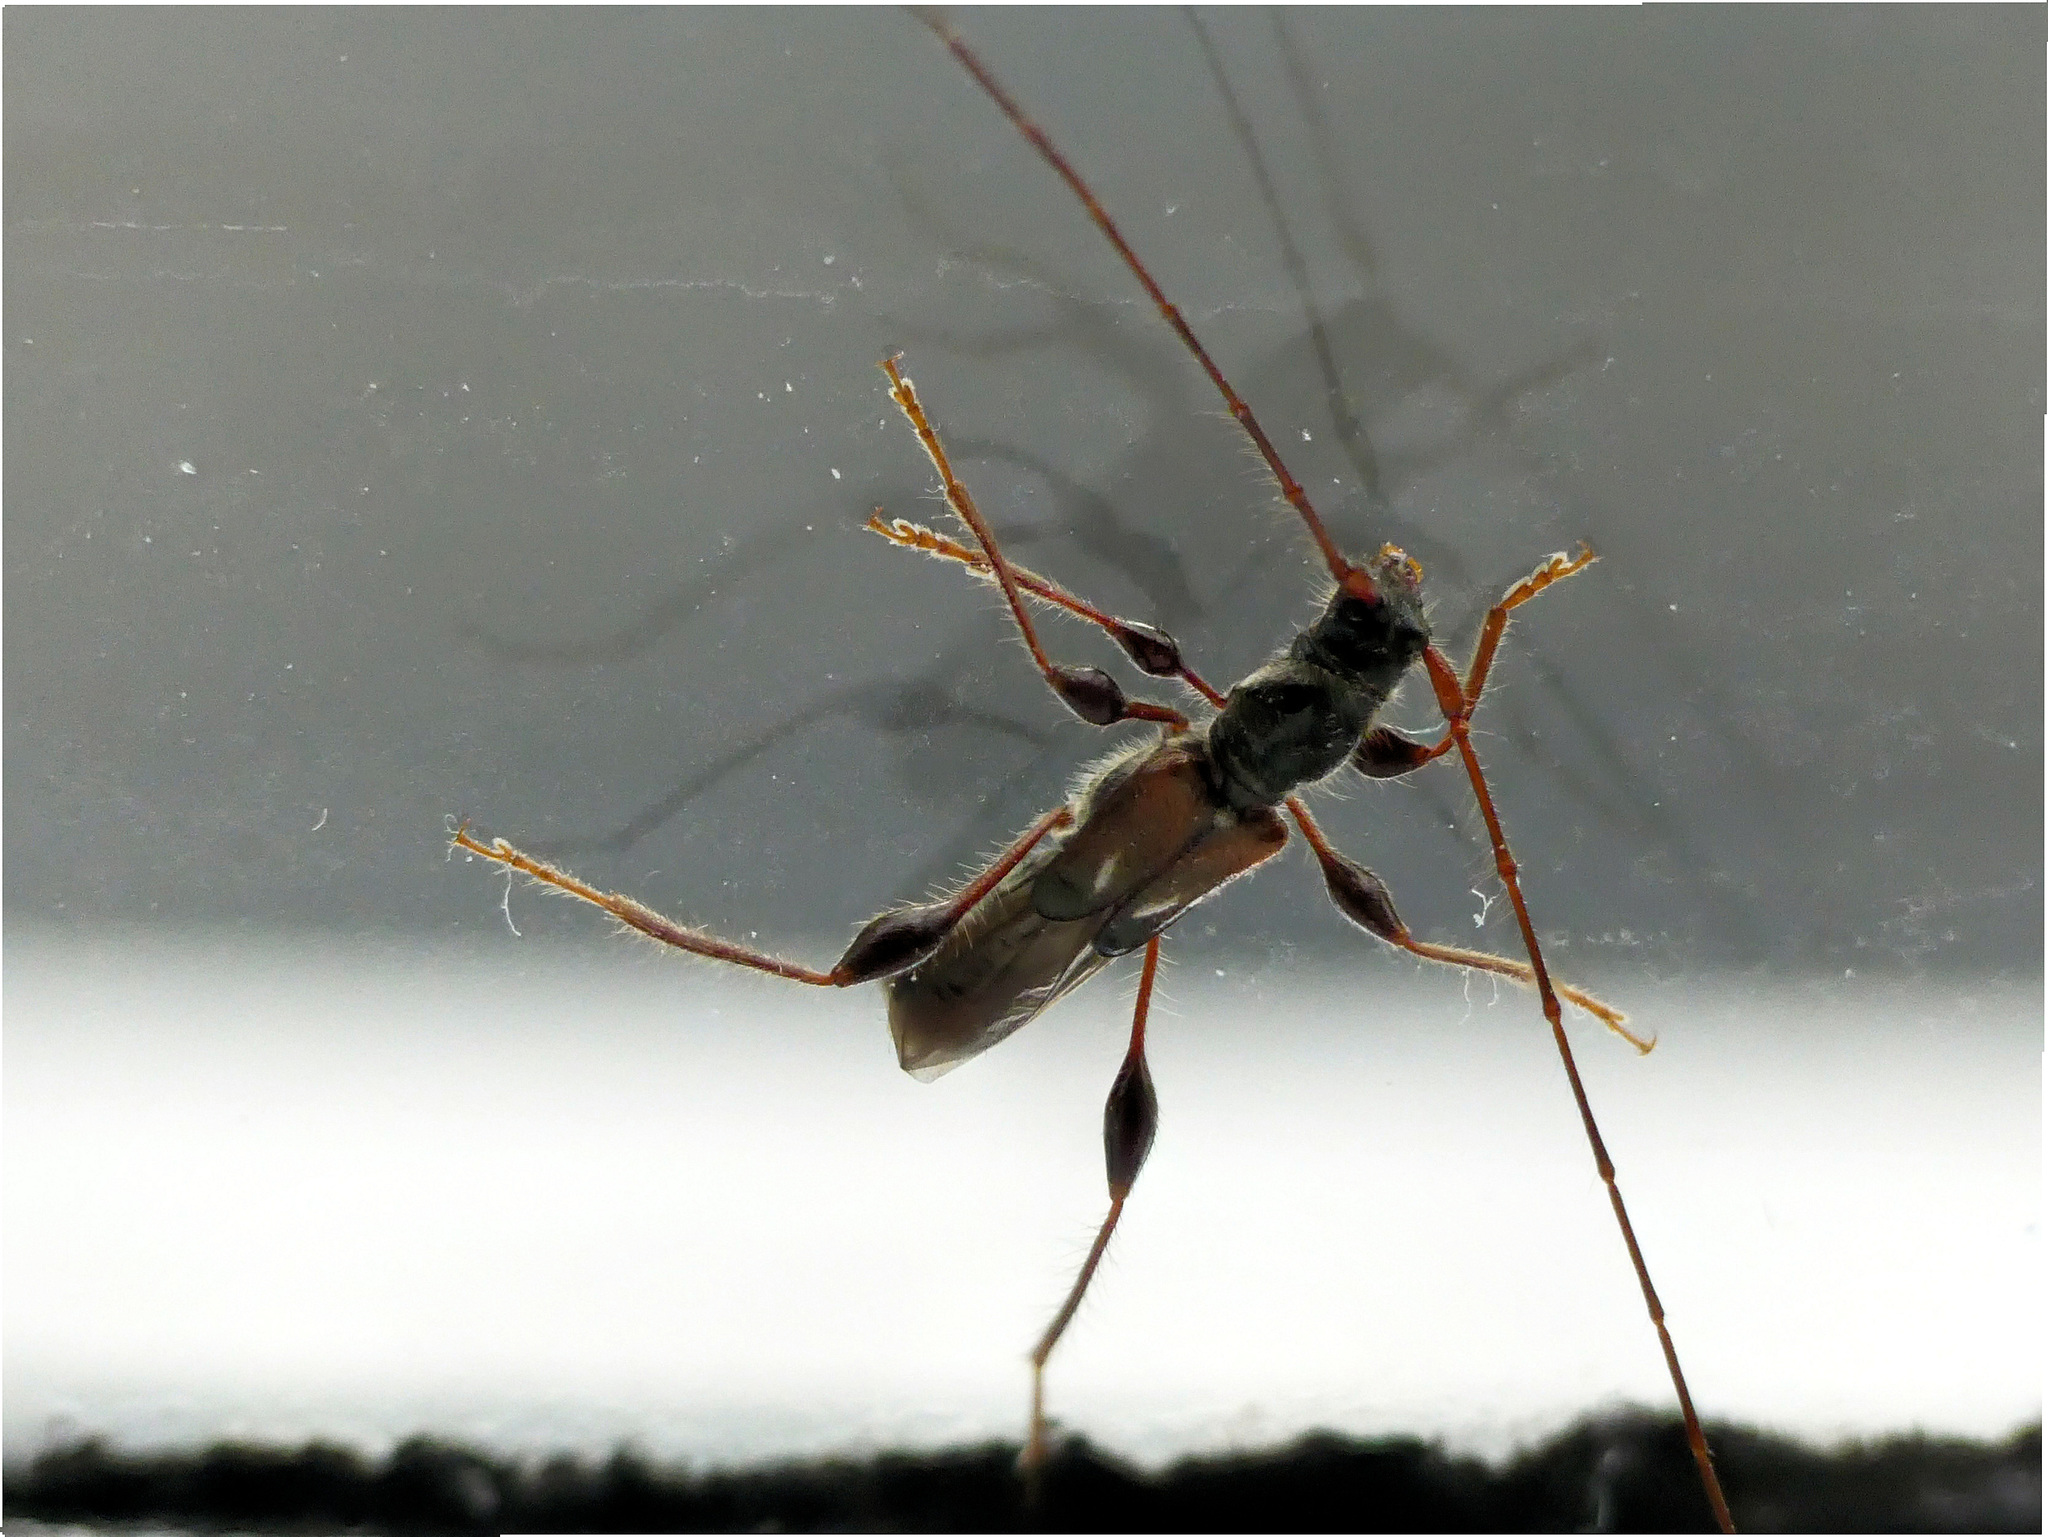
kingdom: Animalia
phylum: Arthropoda
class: Insecta
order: Coleoptera
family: Cerambycidae
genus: Molorchus
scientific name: Molorchus minor
